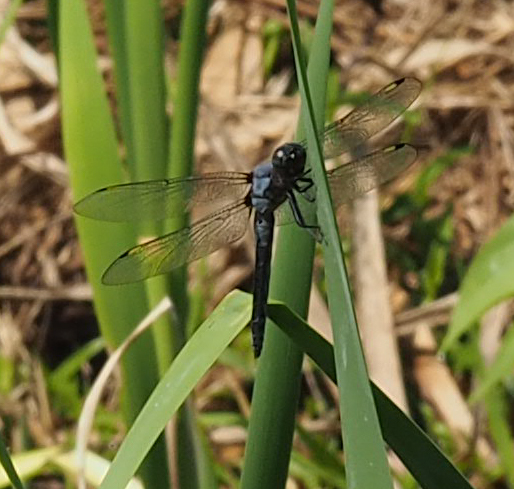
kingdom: Animalia
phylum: Arthropoda
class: Insecta
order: Odonata
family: Libellulidae
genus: Libellula
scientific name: Libellula incesta
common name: Slaty skimmer
